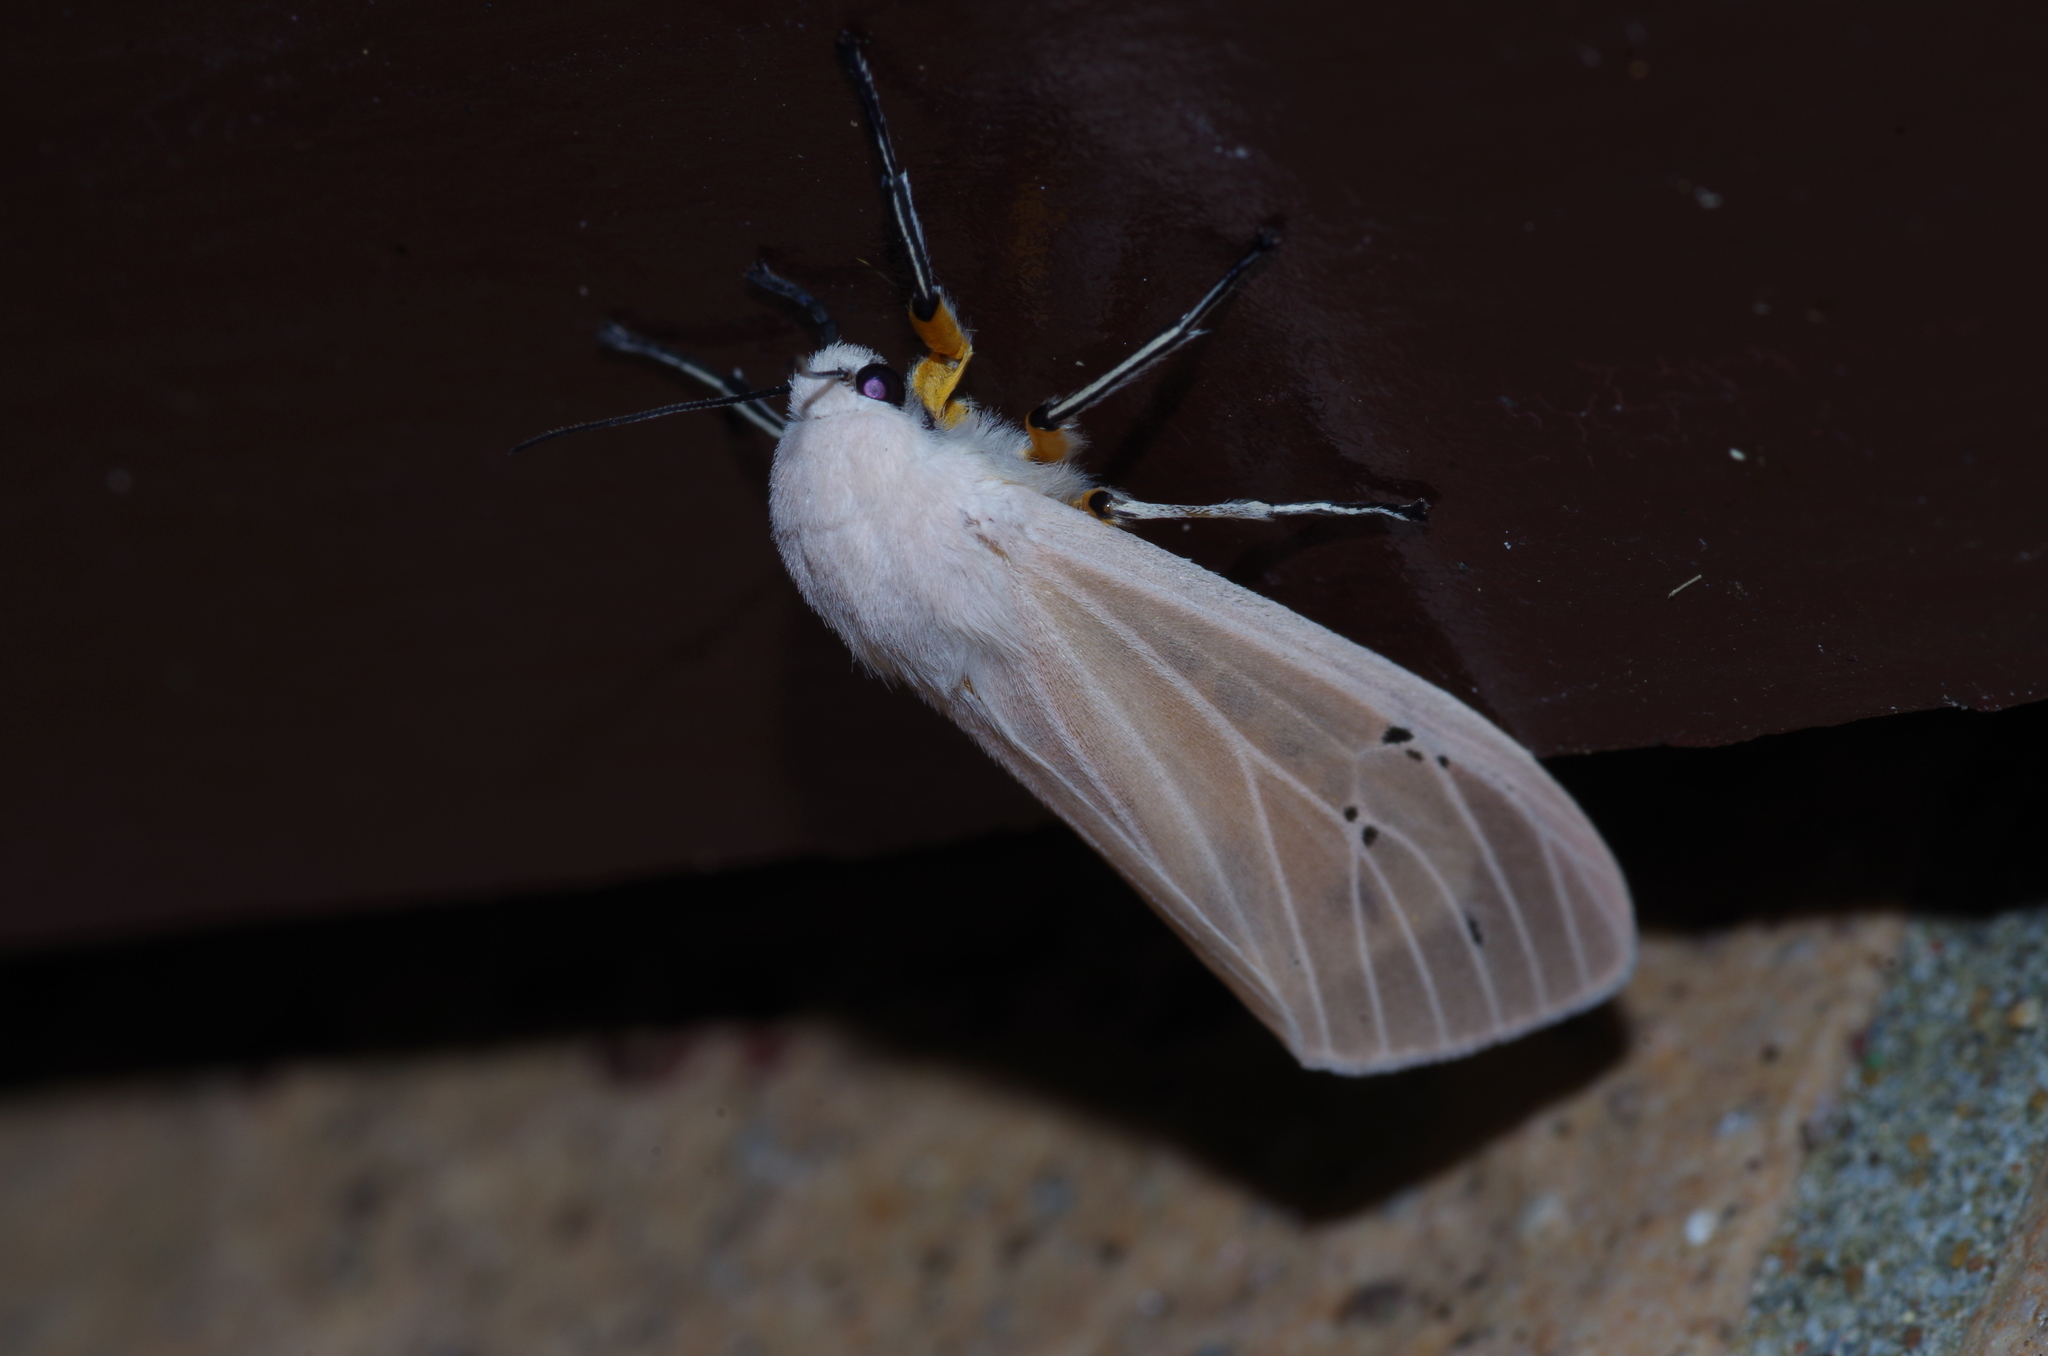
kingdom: Animalia
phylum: Arthropoda
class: Insecta
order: Lepidoptera
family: Erebidae
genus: Creatonotos
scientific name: Creatonotos transiens
